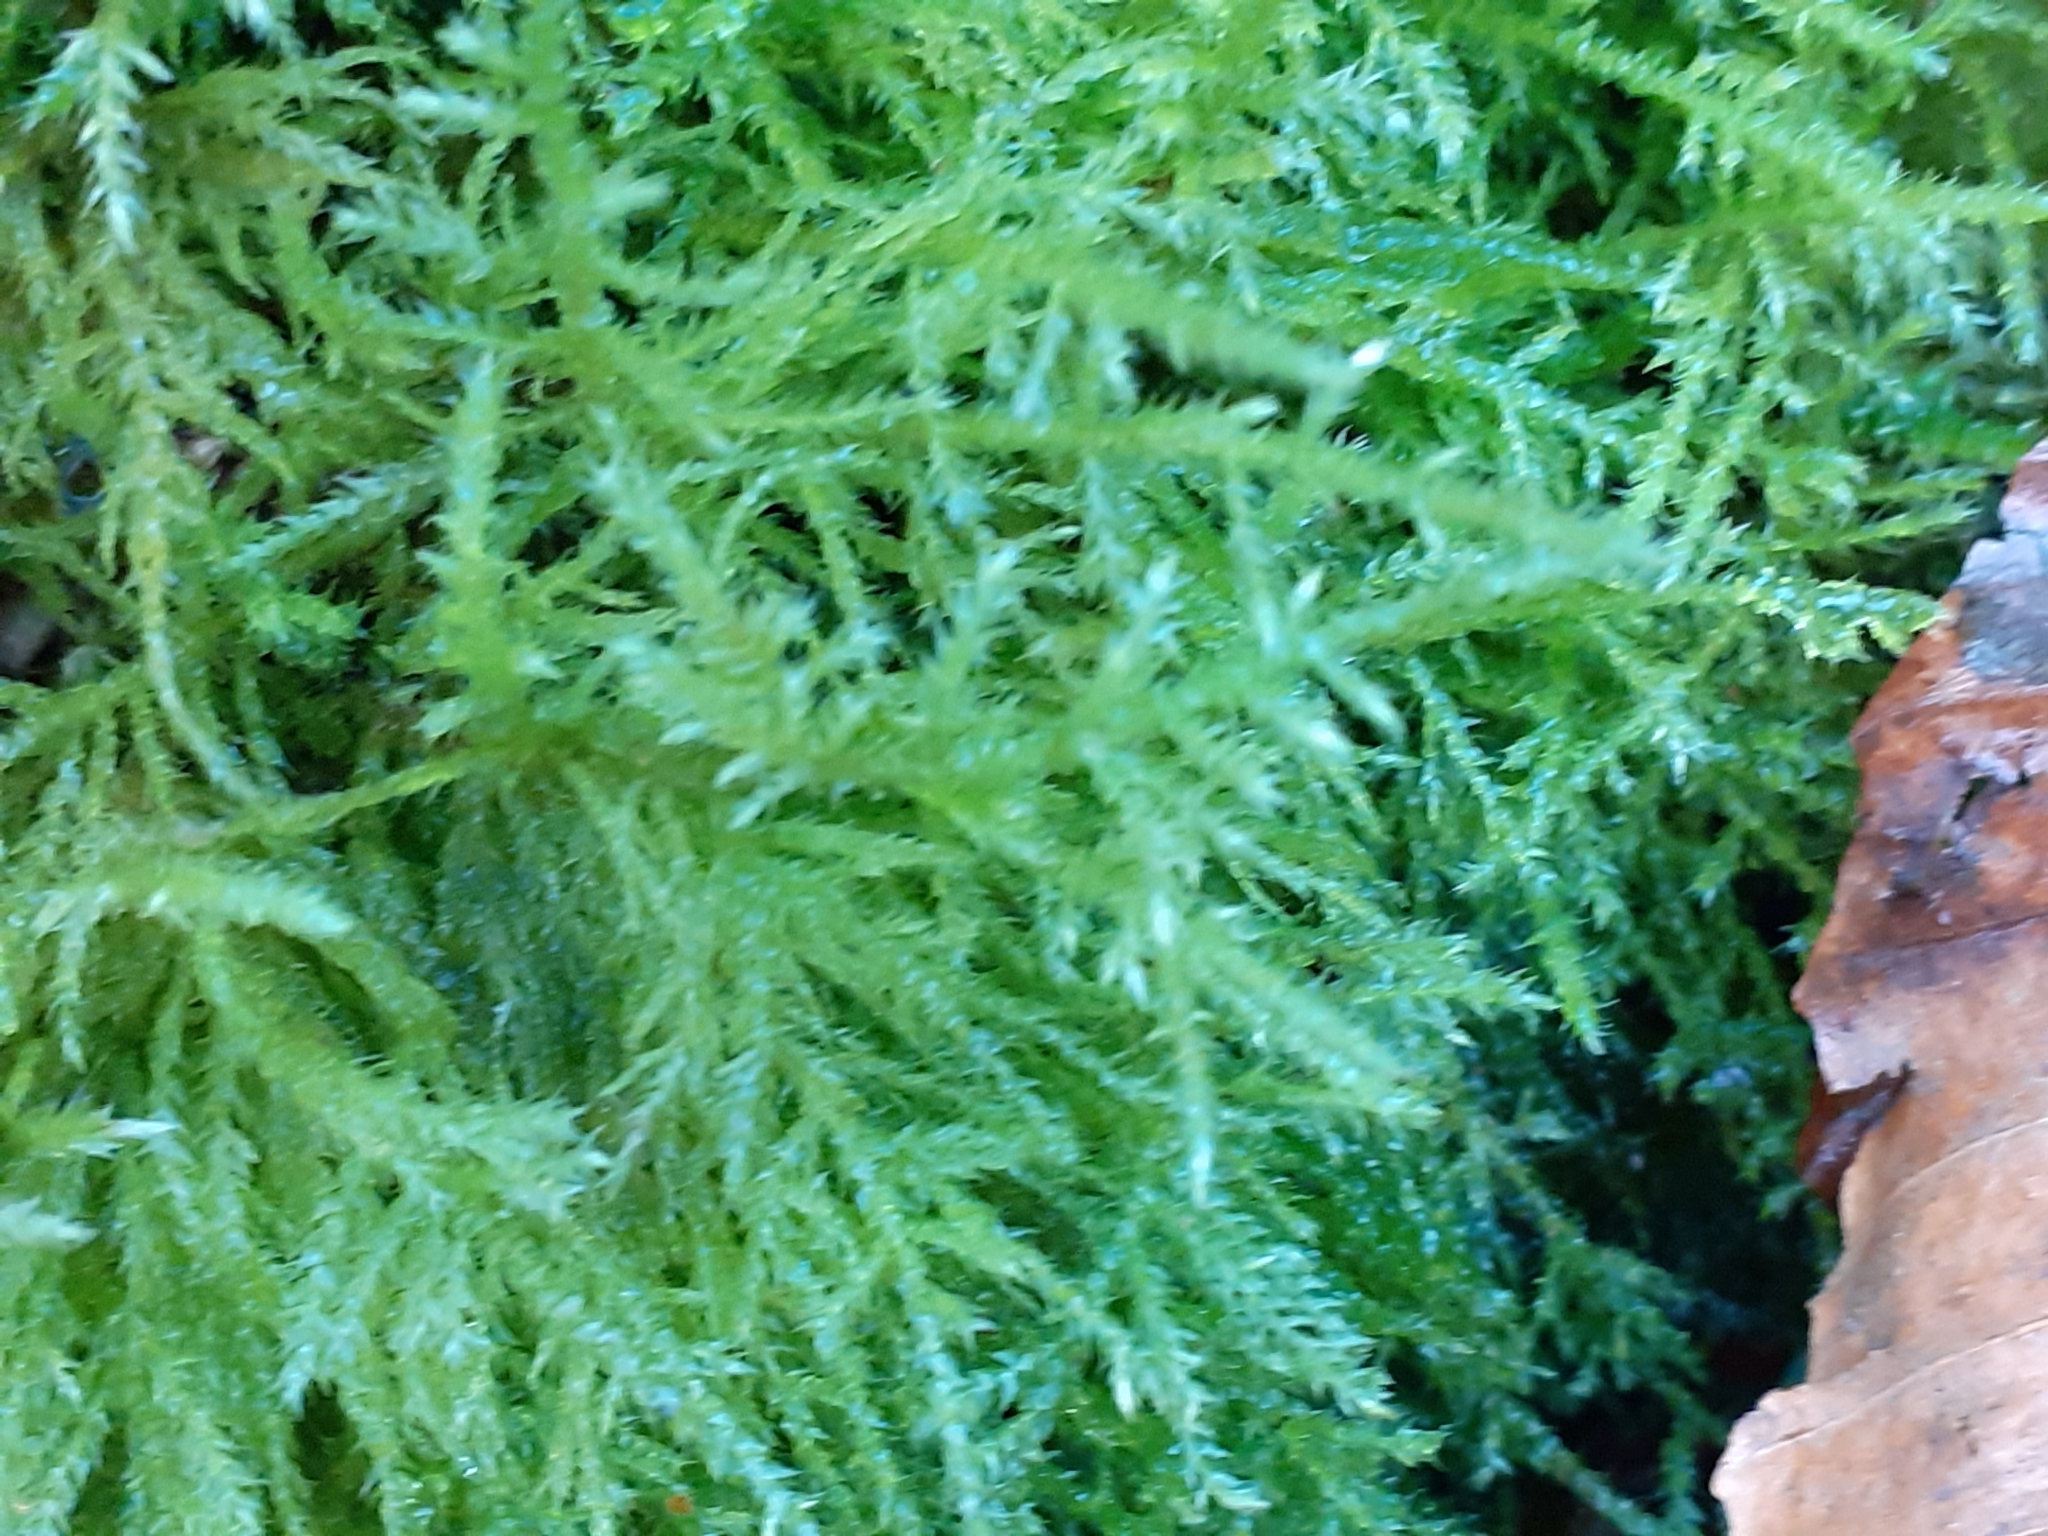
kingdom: Plantae
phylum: Bryophyta
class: Bryopsida
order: Hypnales
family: Brachytheciaceae
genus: Kindbergia
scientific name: Kindbergia praelonga
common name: Slender beaked moss
